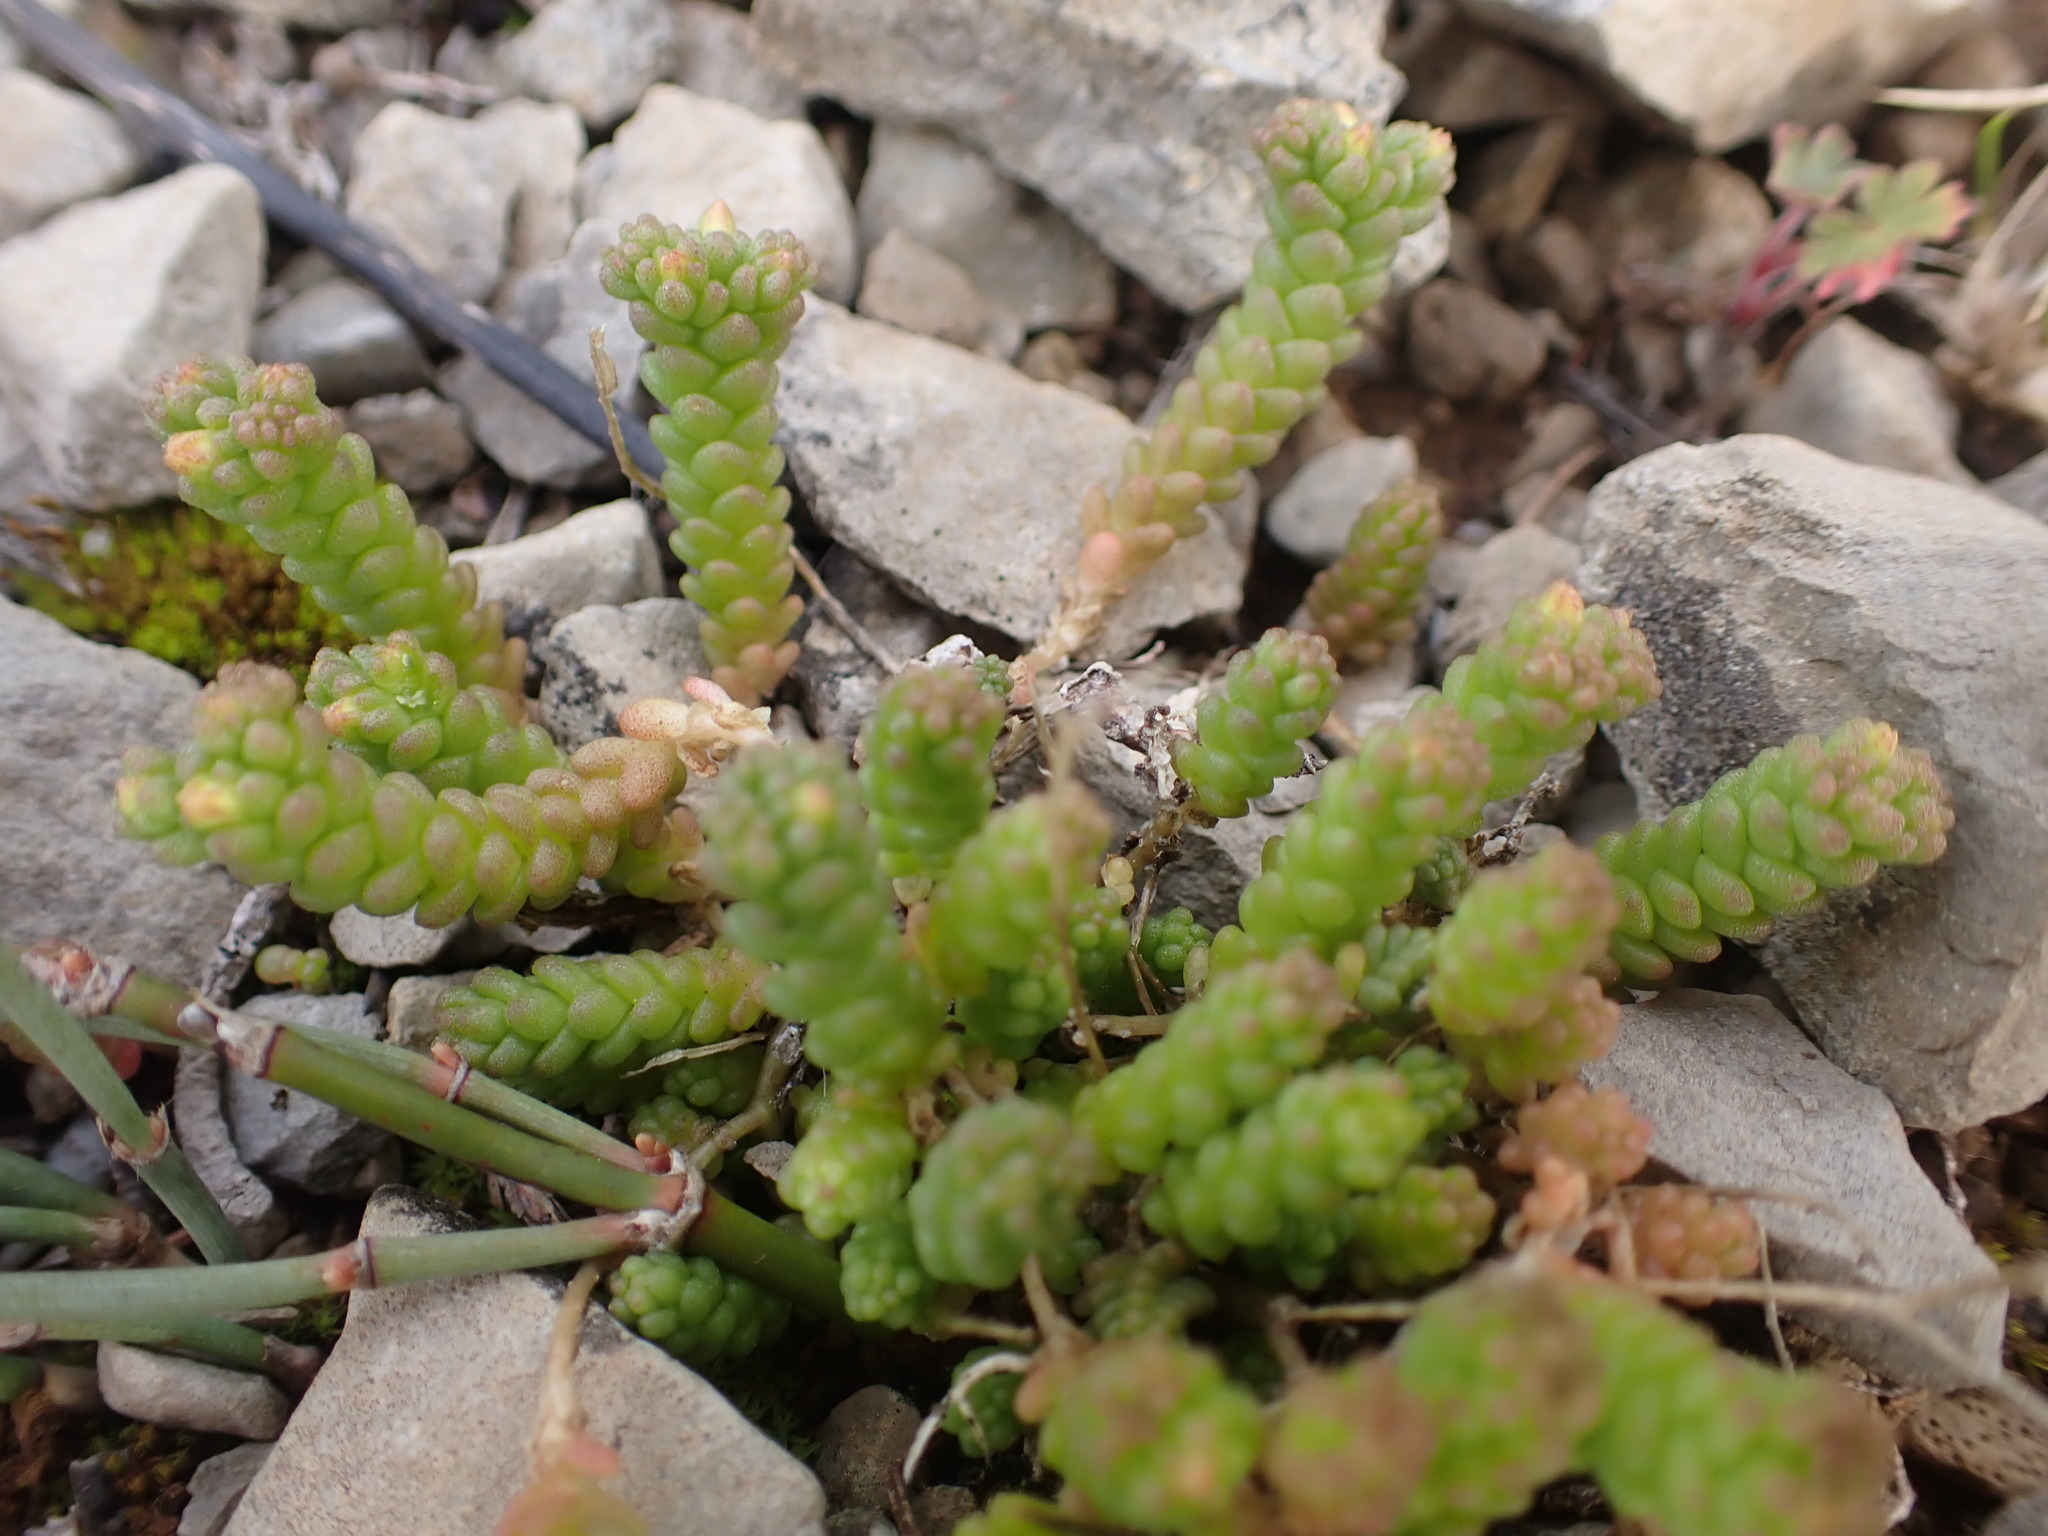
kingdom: Plantae
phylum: Tracheophyta
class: Magnoliopsida
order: Saxifragales
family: Crassulaceae
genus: Sedum
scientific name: Sedum acre
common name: Biting stonecrop
